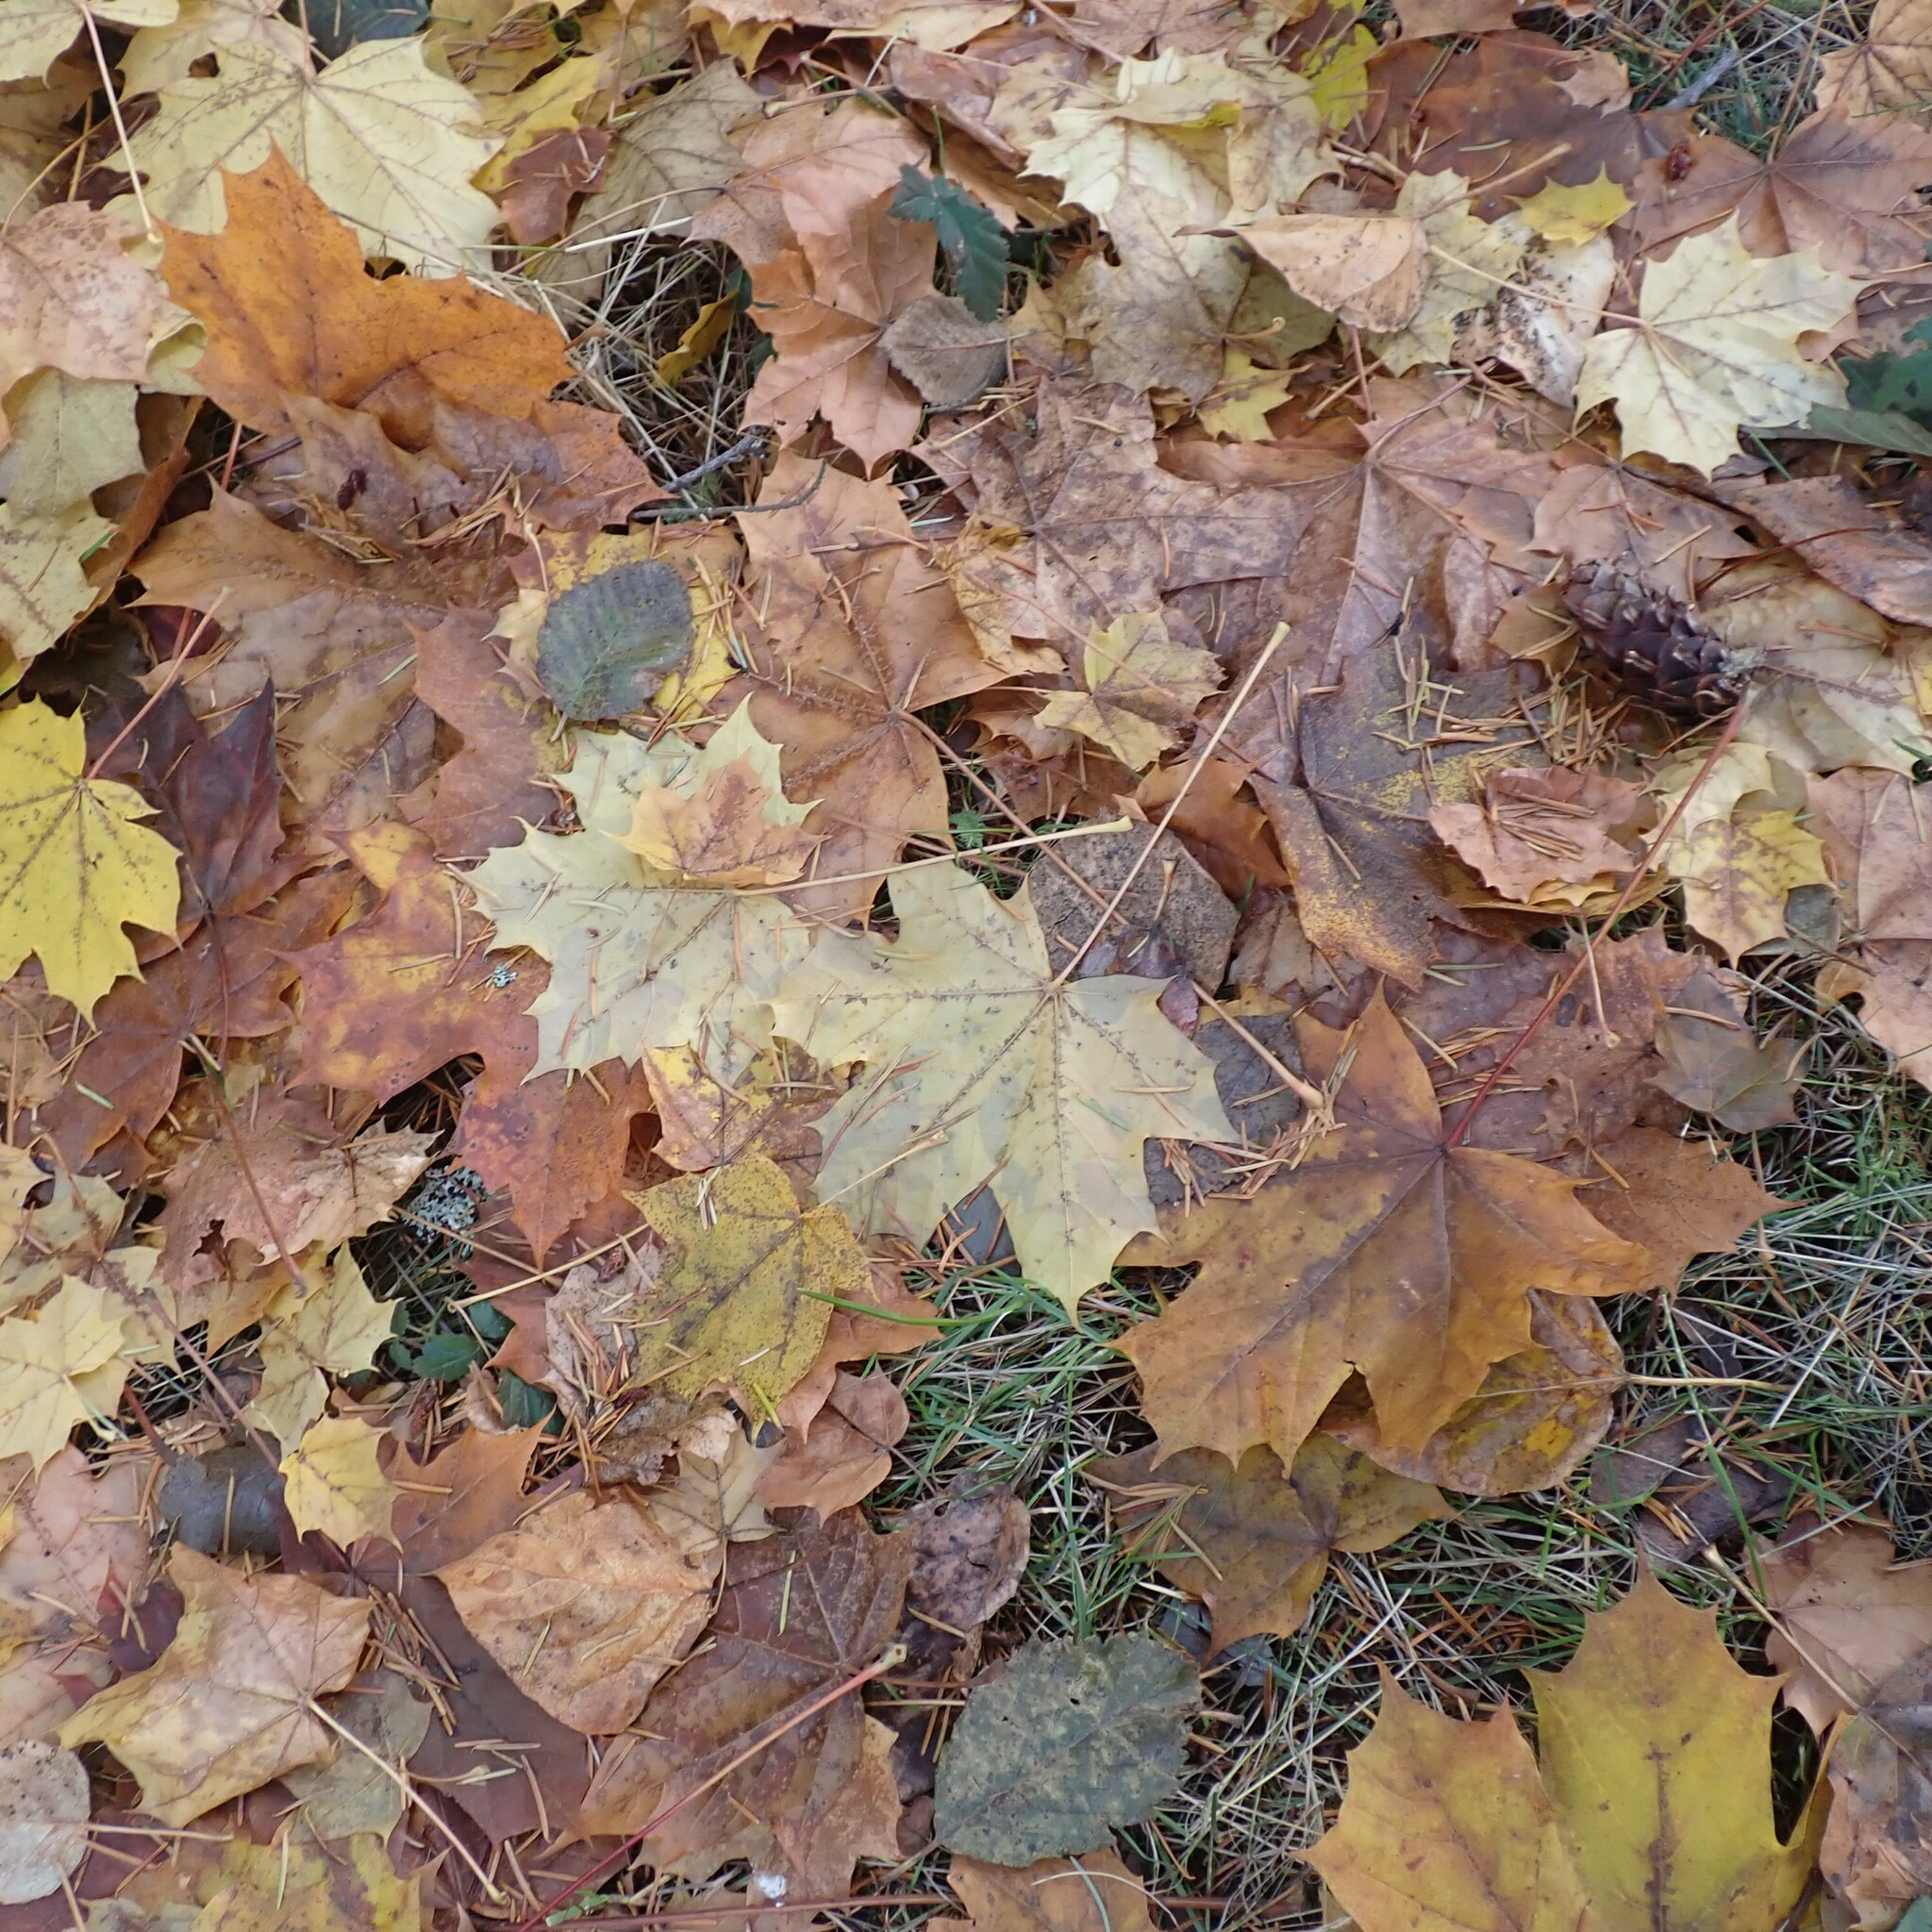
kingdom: Plantae
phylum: Tracheophyta
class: Magnoliopsida
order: Sapindales
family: Sapindaceae
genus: Acer
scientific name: Acer platanoides
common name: Norway maple
